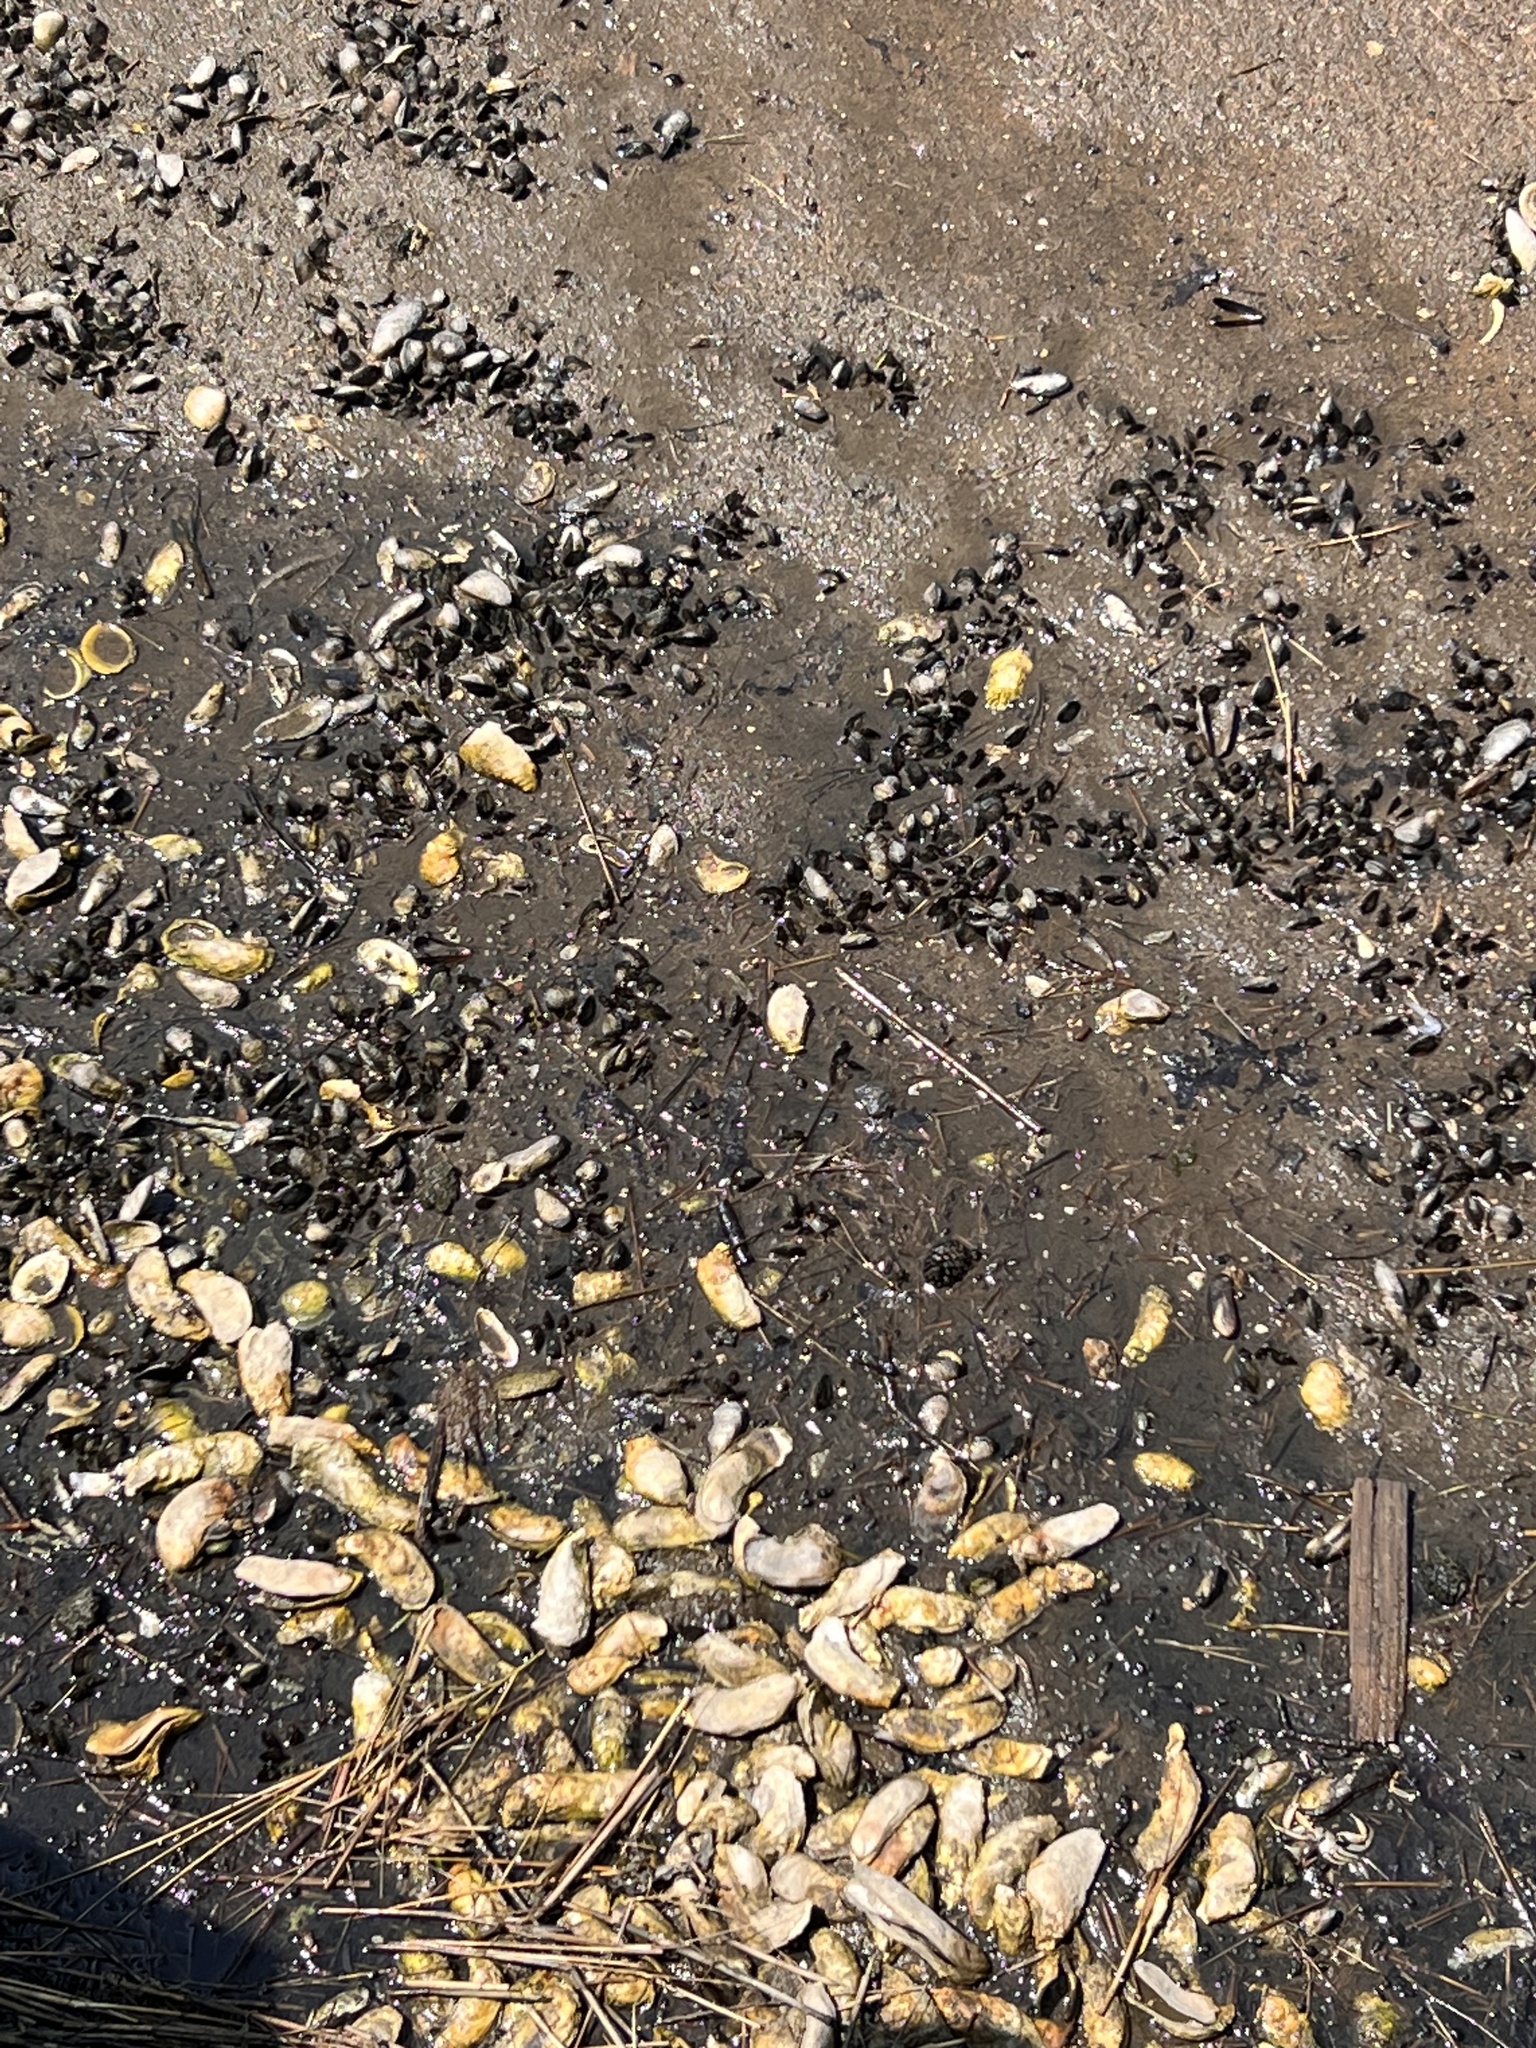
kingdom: Animalia
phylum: Mollusca
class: Bivalvia
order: Ostreida
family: Ostreidae
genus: Crassostrea
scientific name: Crassostrea virginica
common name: American oyster
